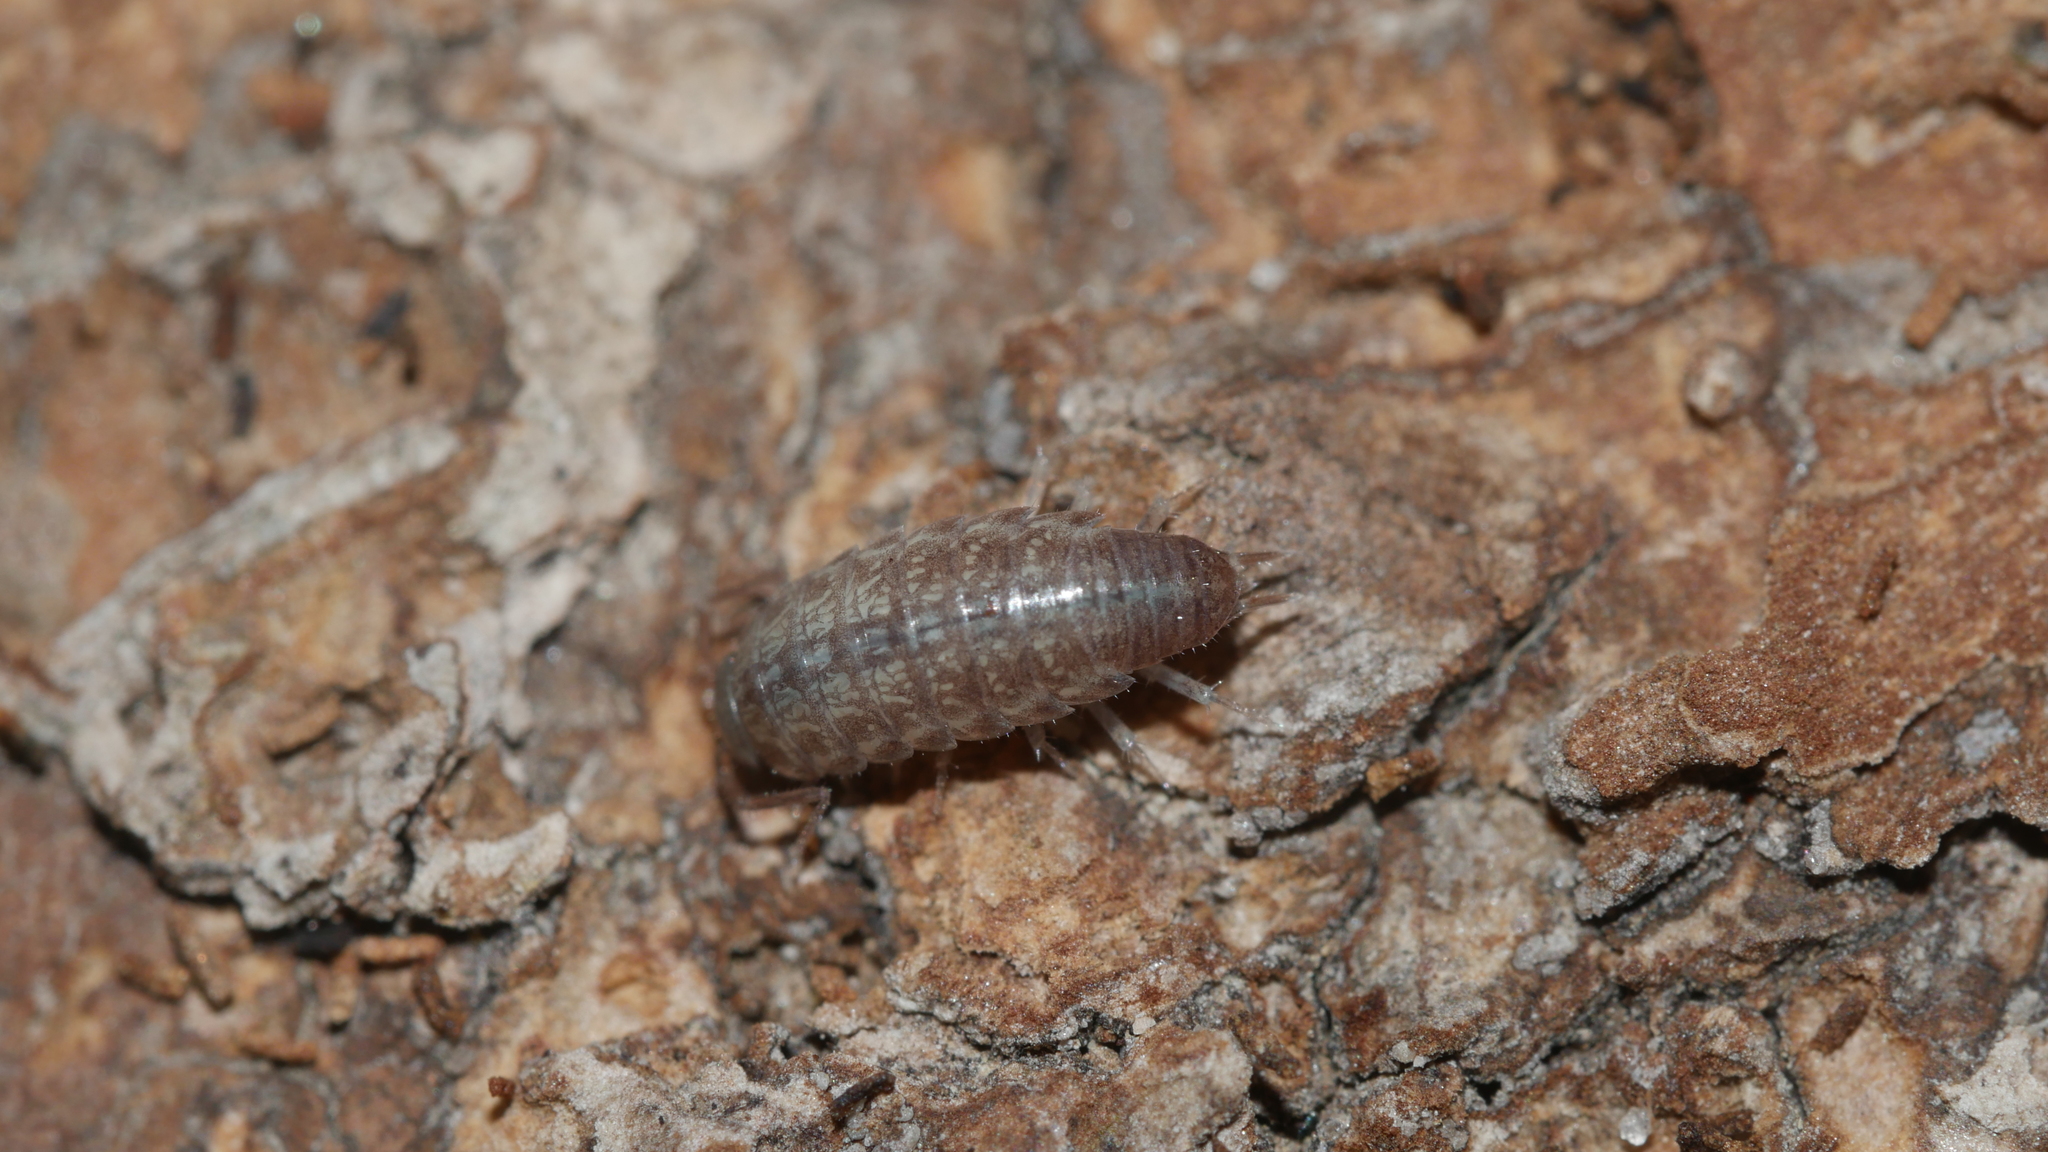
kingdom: Animalia
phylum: Arthropoda
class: Malacostraca
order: Isopoda
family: Philosciidae
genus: Chaetophiloscia
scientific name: Chaetophiloscia sicula
